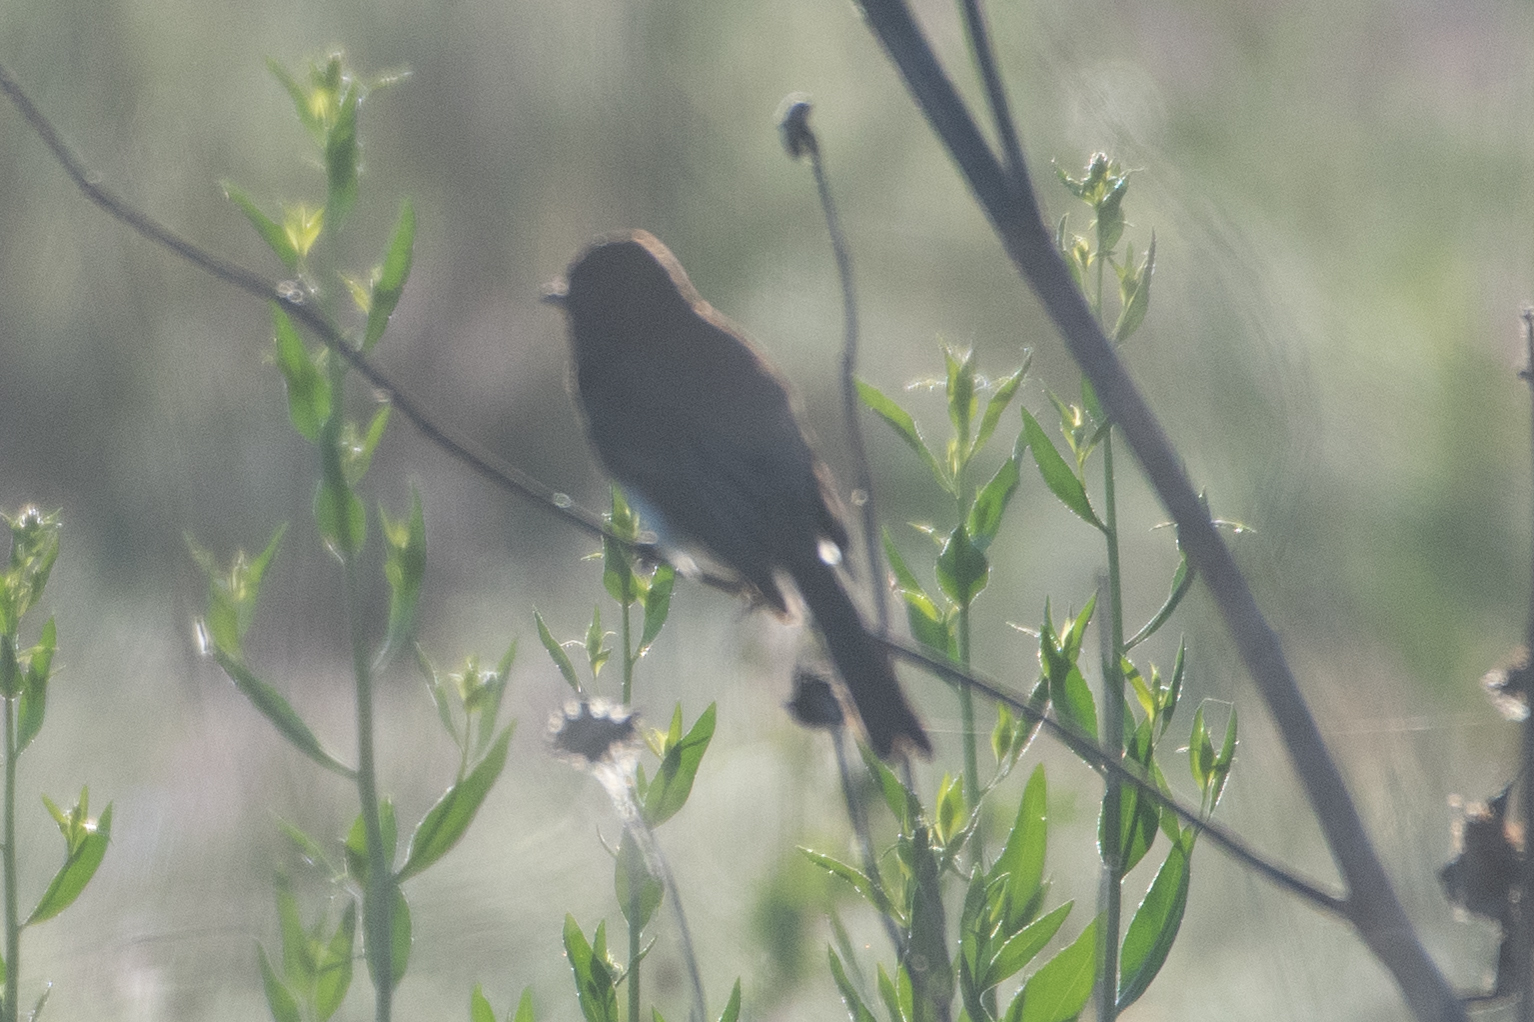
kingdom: Animalia
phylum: Chordata
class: Aves
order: Passeriformes
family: Tyrannidae
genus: Sayornis
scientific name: Sayornis nigricans
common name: Black phoebe
